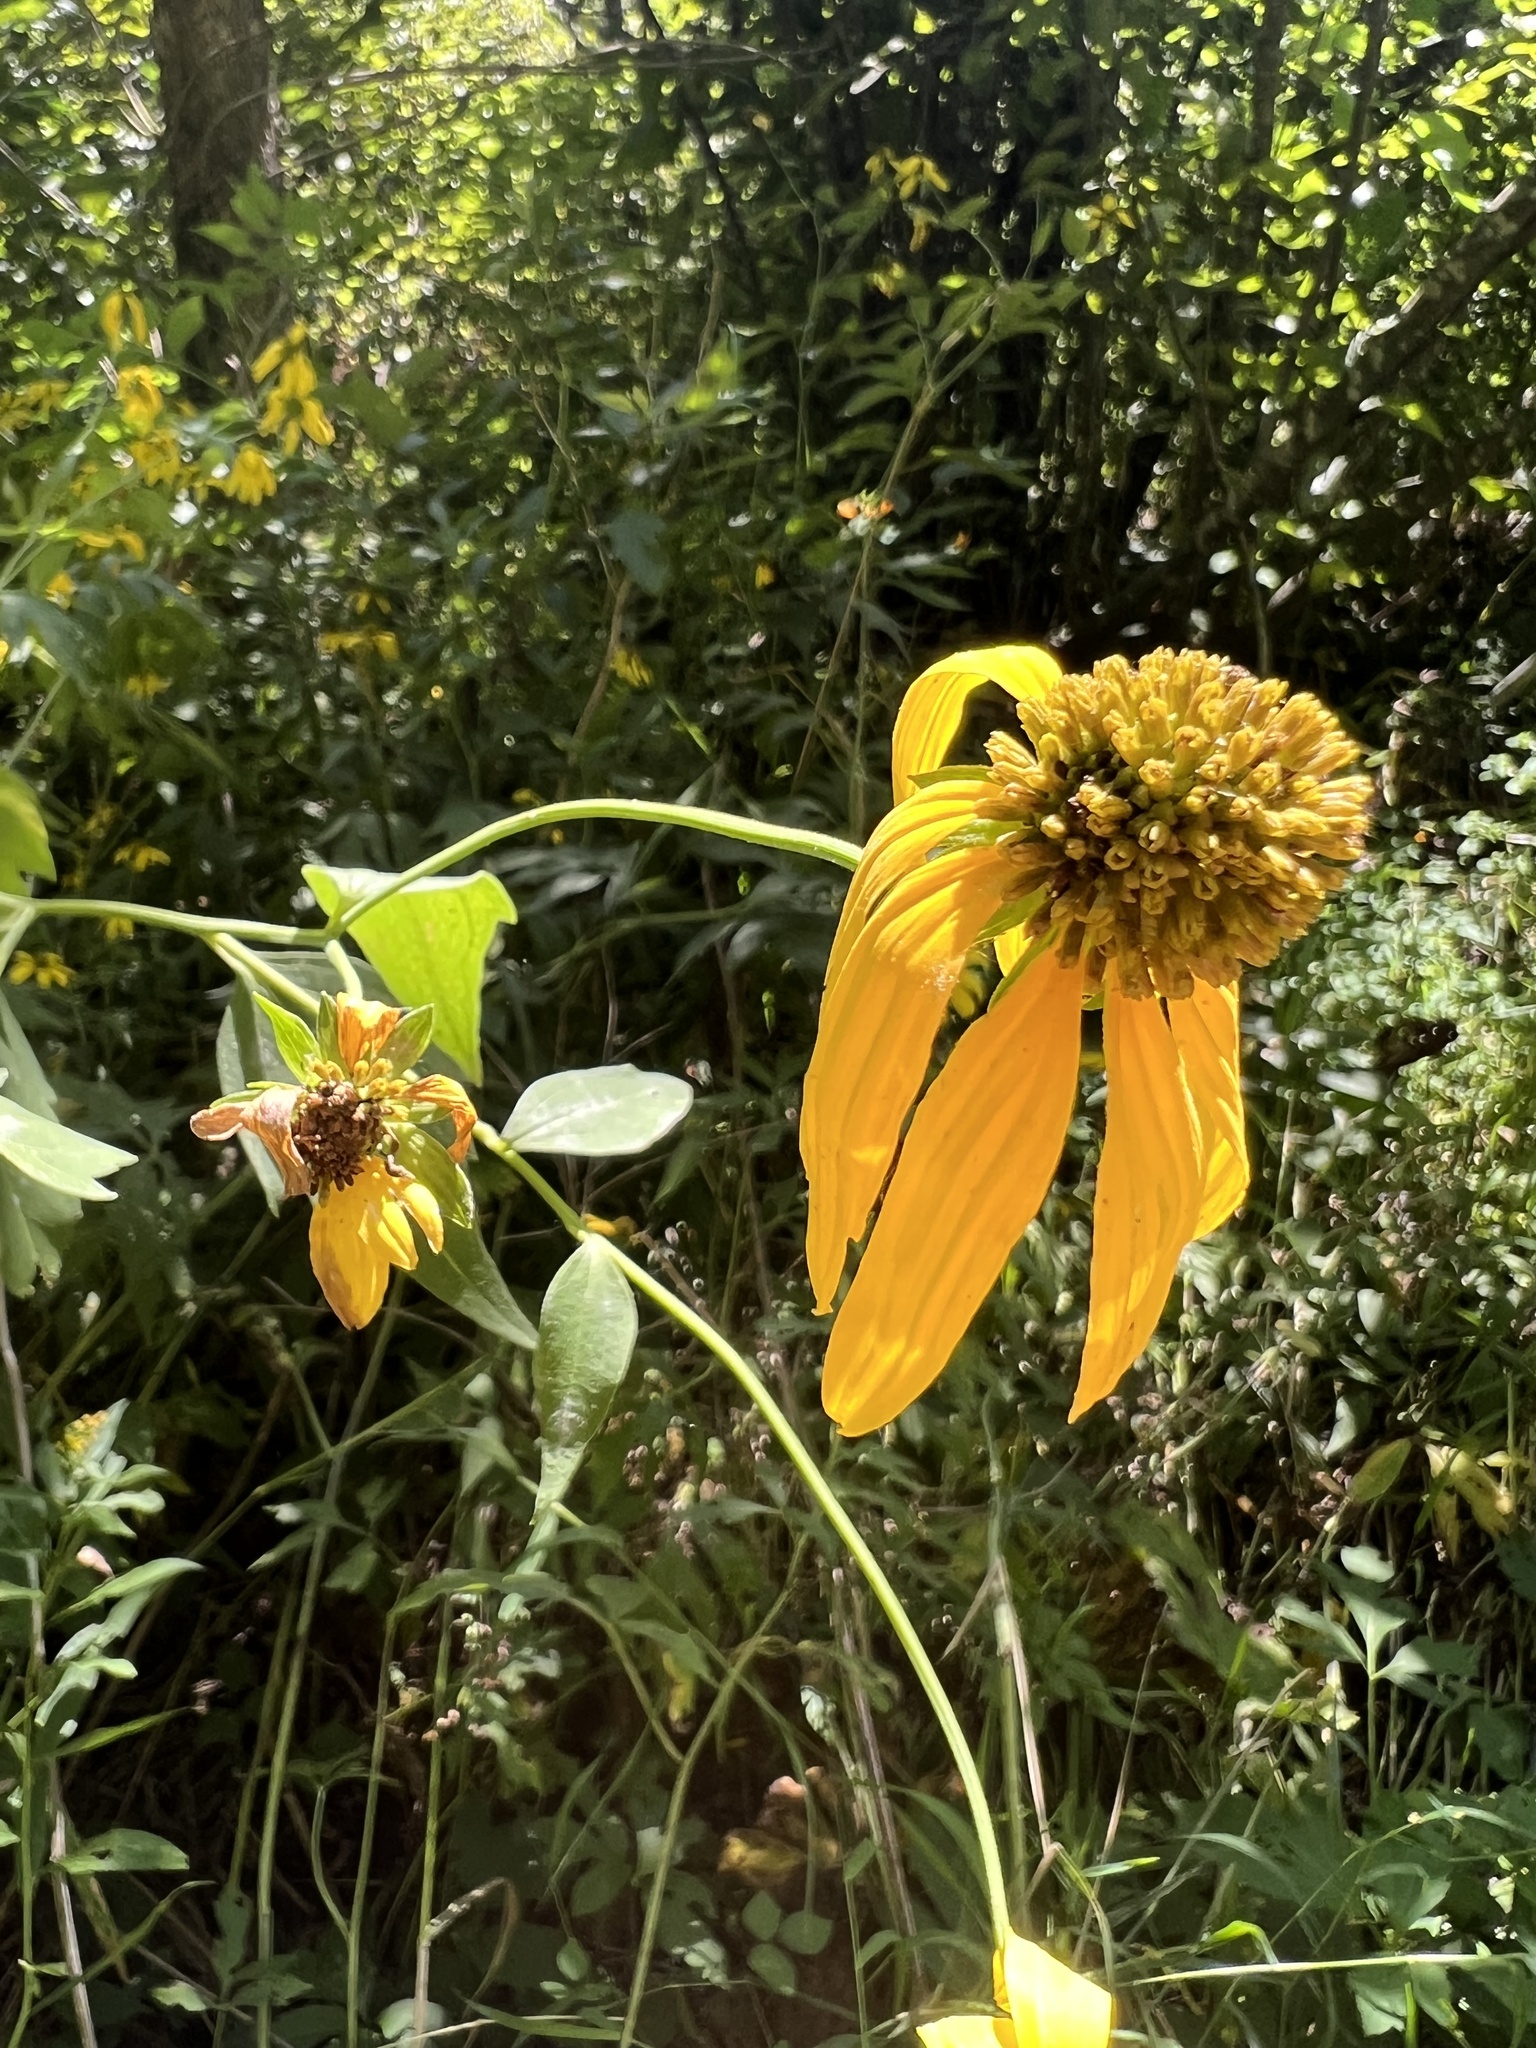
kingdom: Plantae
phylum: Tracheophyta
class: Magnoliopsida
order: Asterales
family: Asteraceae
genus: Rudbeckia
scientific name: Rudbeckia laciniata
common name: Coneflower
